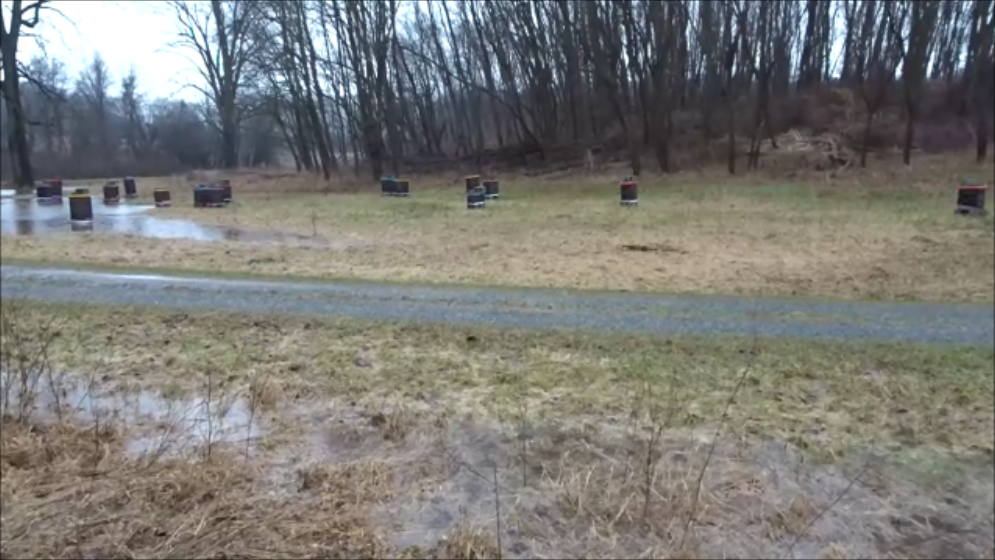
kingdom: Animalia
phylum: Chordata
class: Amphibia
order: Anura
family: Hylidae
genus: Pseudacris
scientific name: Pseudacris crucifer
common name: Spring peeper
